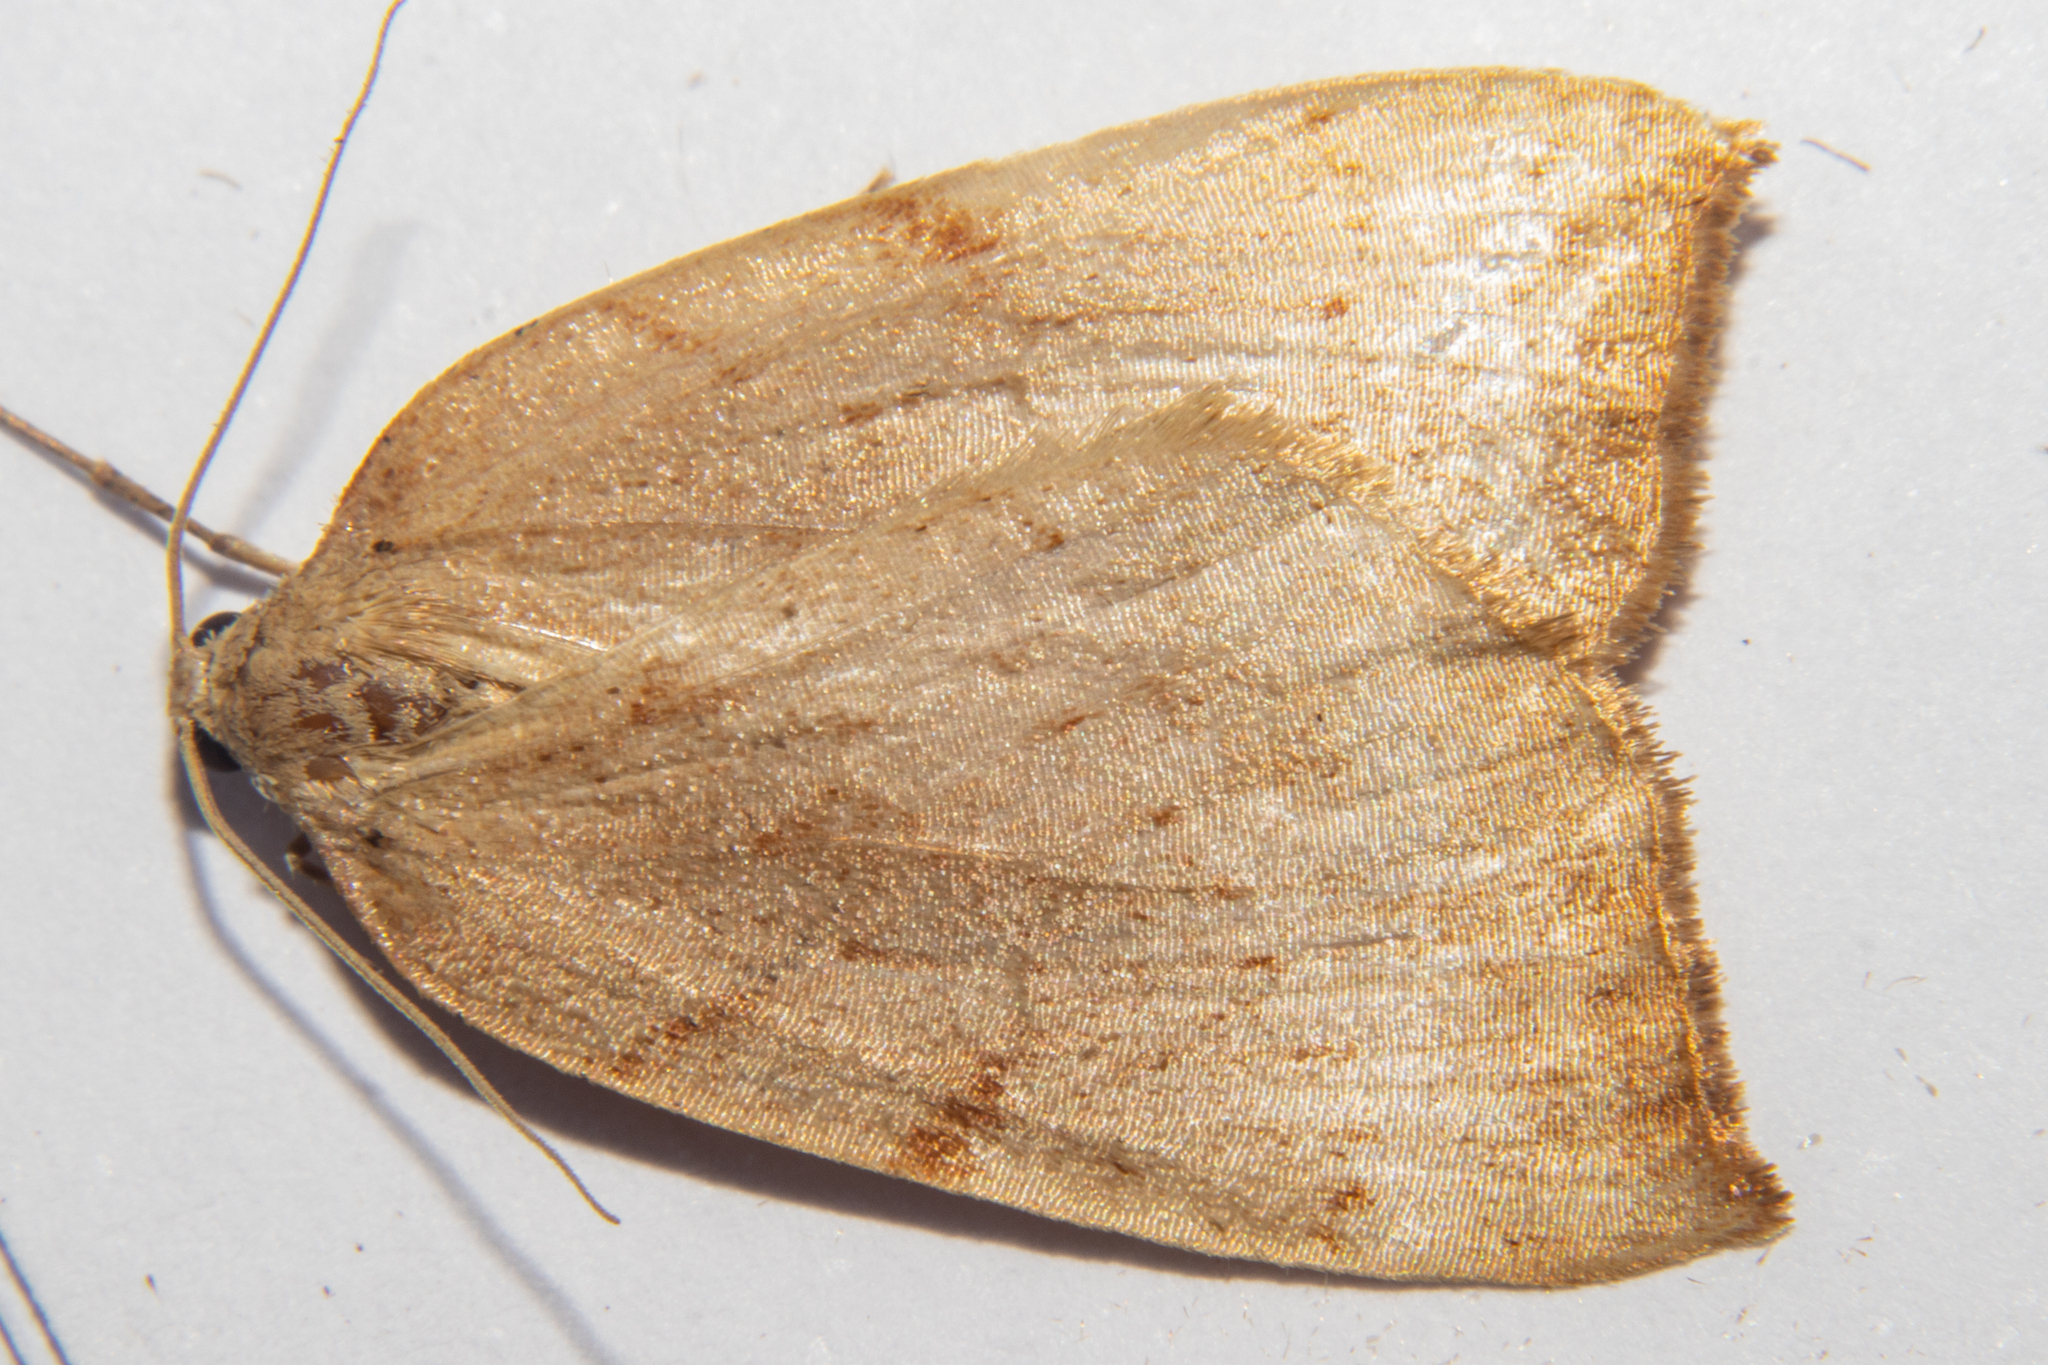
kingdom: Animalia
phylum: Arthropoda
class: Insecta
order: Lepidoptera
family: Geometridae
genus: Sestra
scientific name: Sestra humeraria
